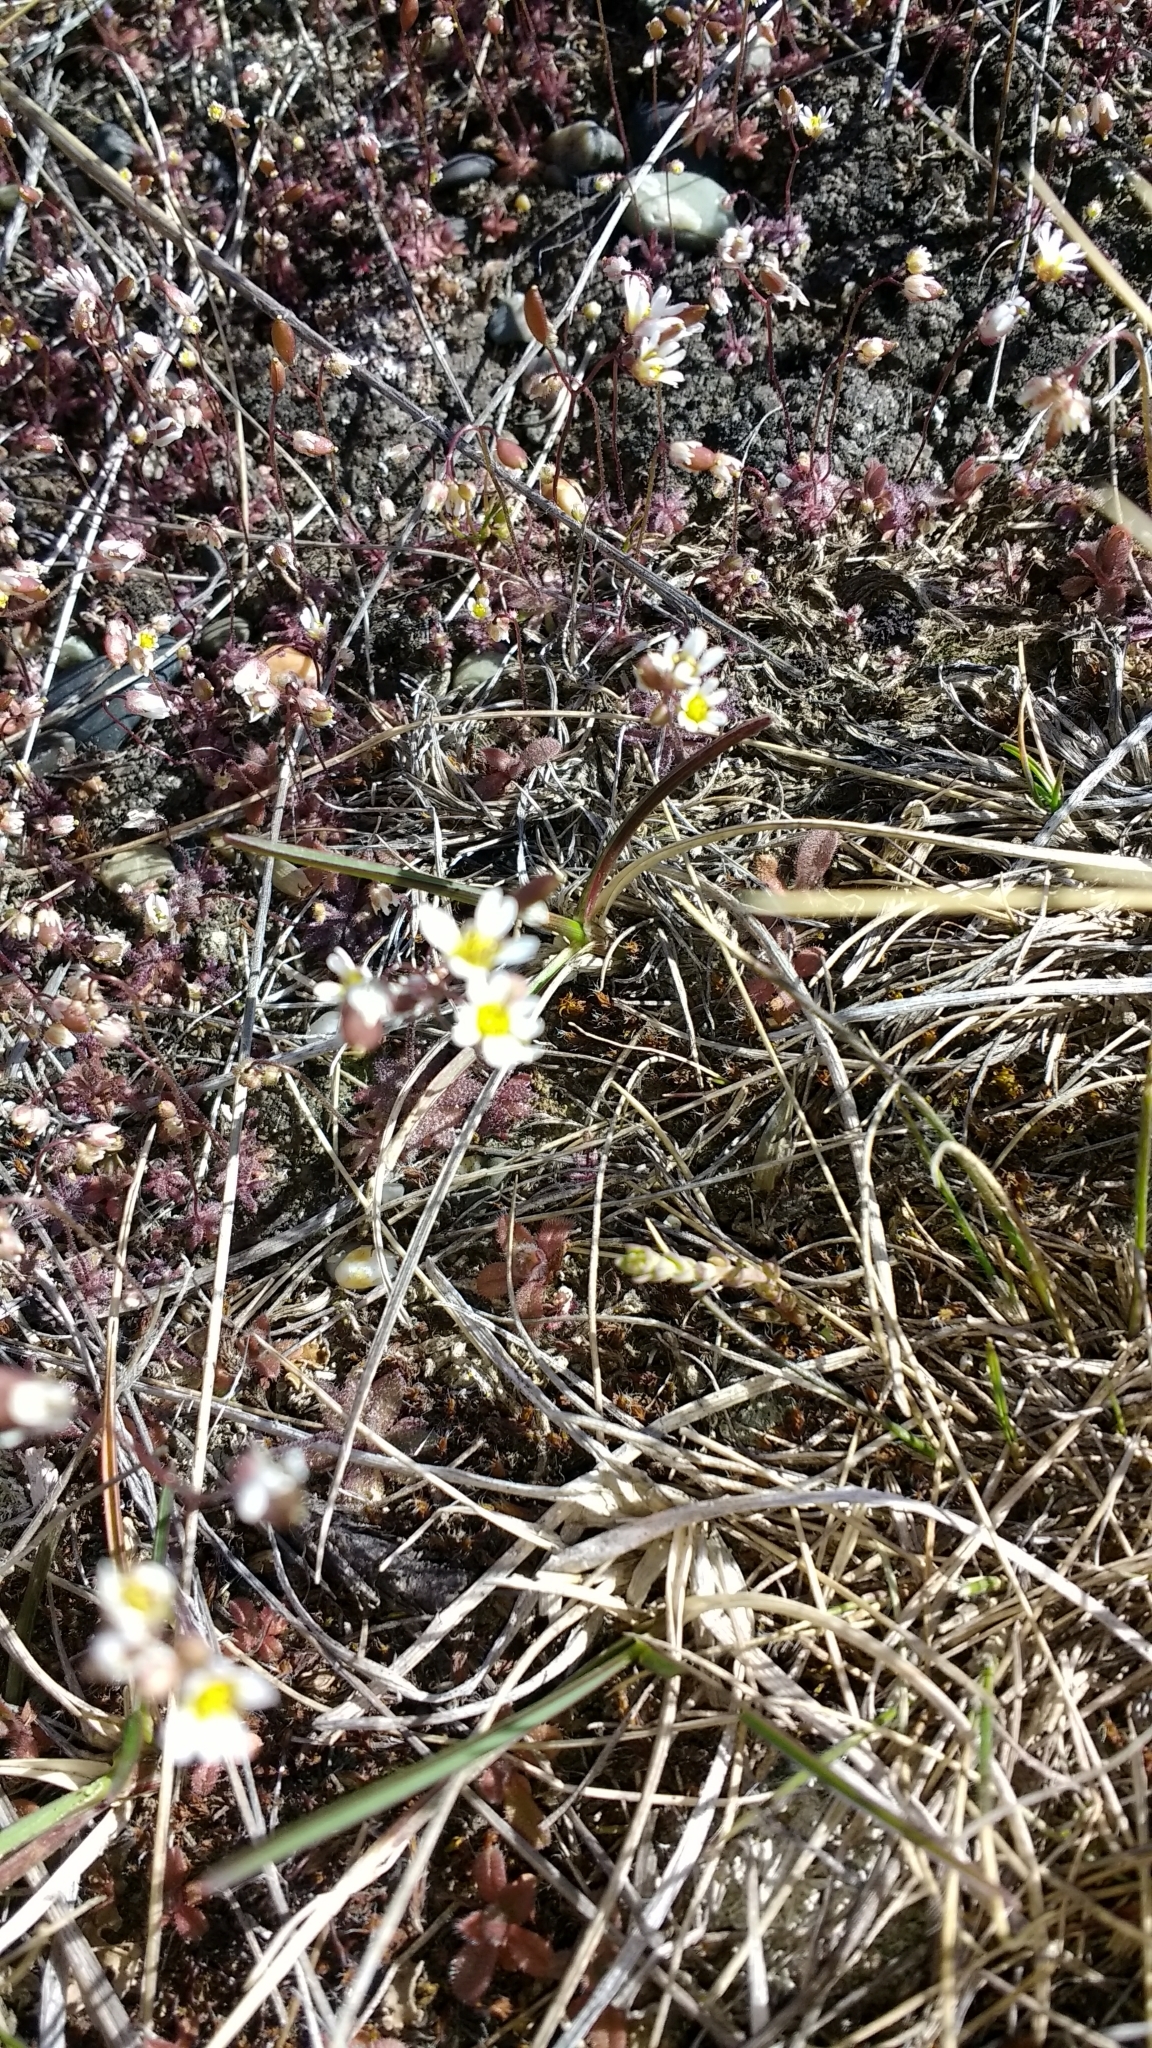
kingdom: Plantae
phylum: Tracheophyta
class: Magnoliopsida
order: Brassicales
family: Brassicaceae
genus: Draba
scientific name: Draba verna
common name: Spring draba
